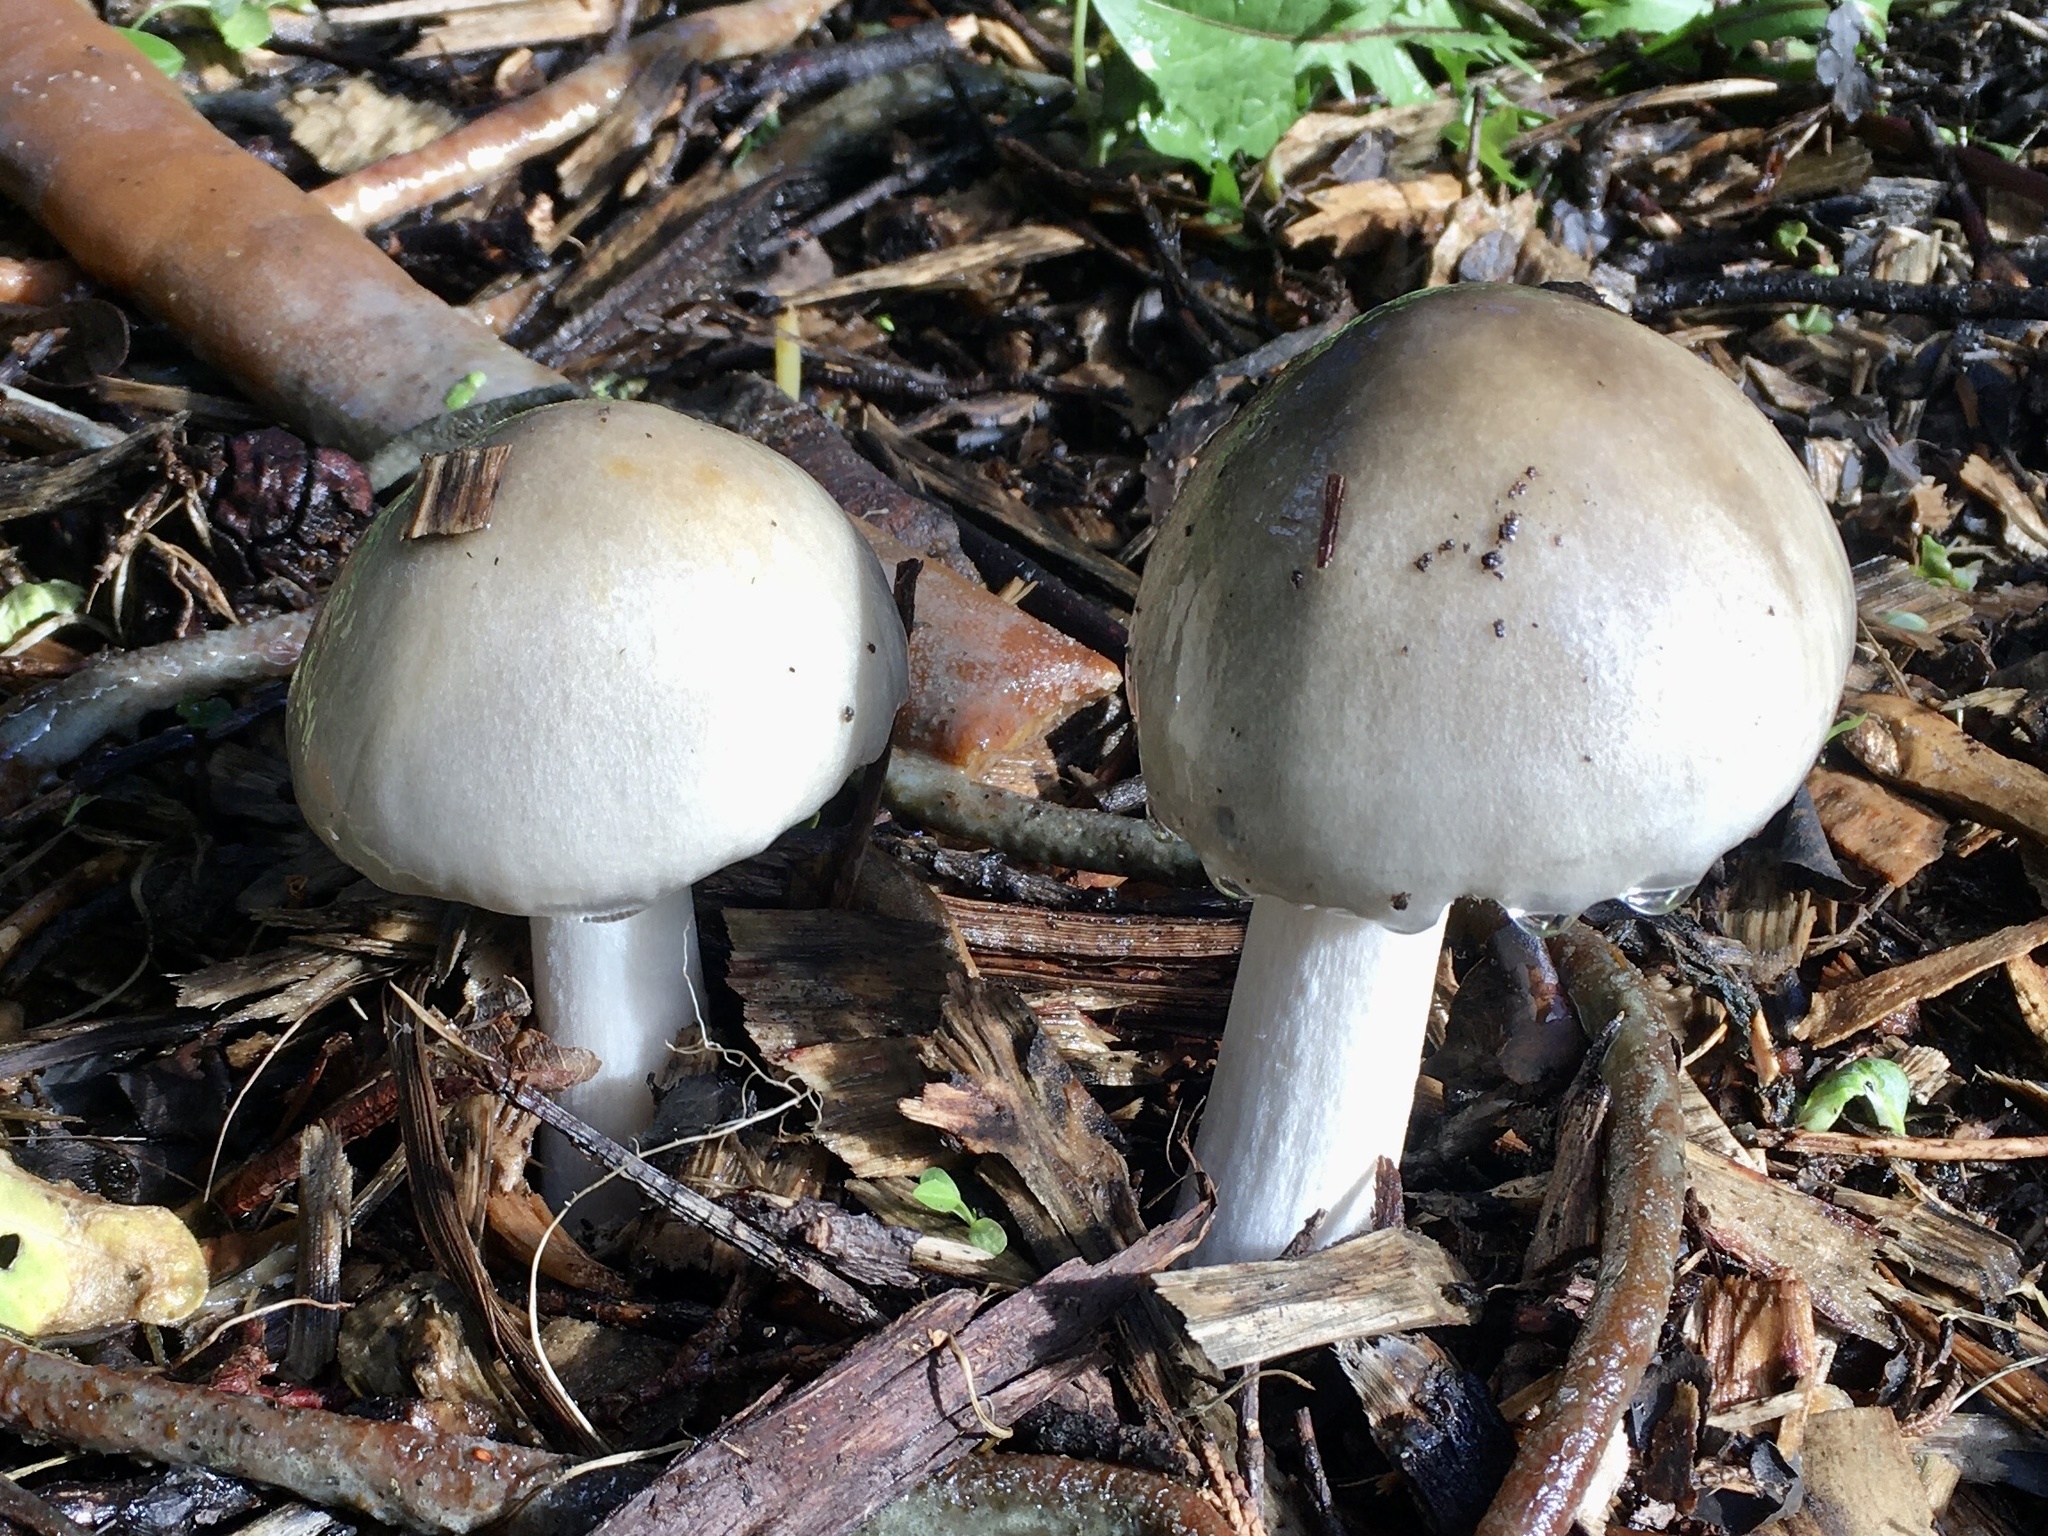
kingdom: Fungi
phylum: Basidiomycota
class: Agaricomycetes
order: Agaricales
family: Pluteaceae
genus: Volvopluteus
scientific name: Volvopluteus gloiocephalus
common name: Stubble rosegill
